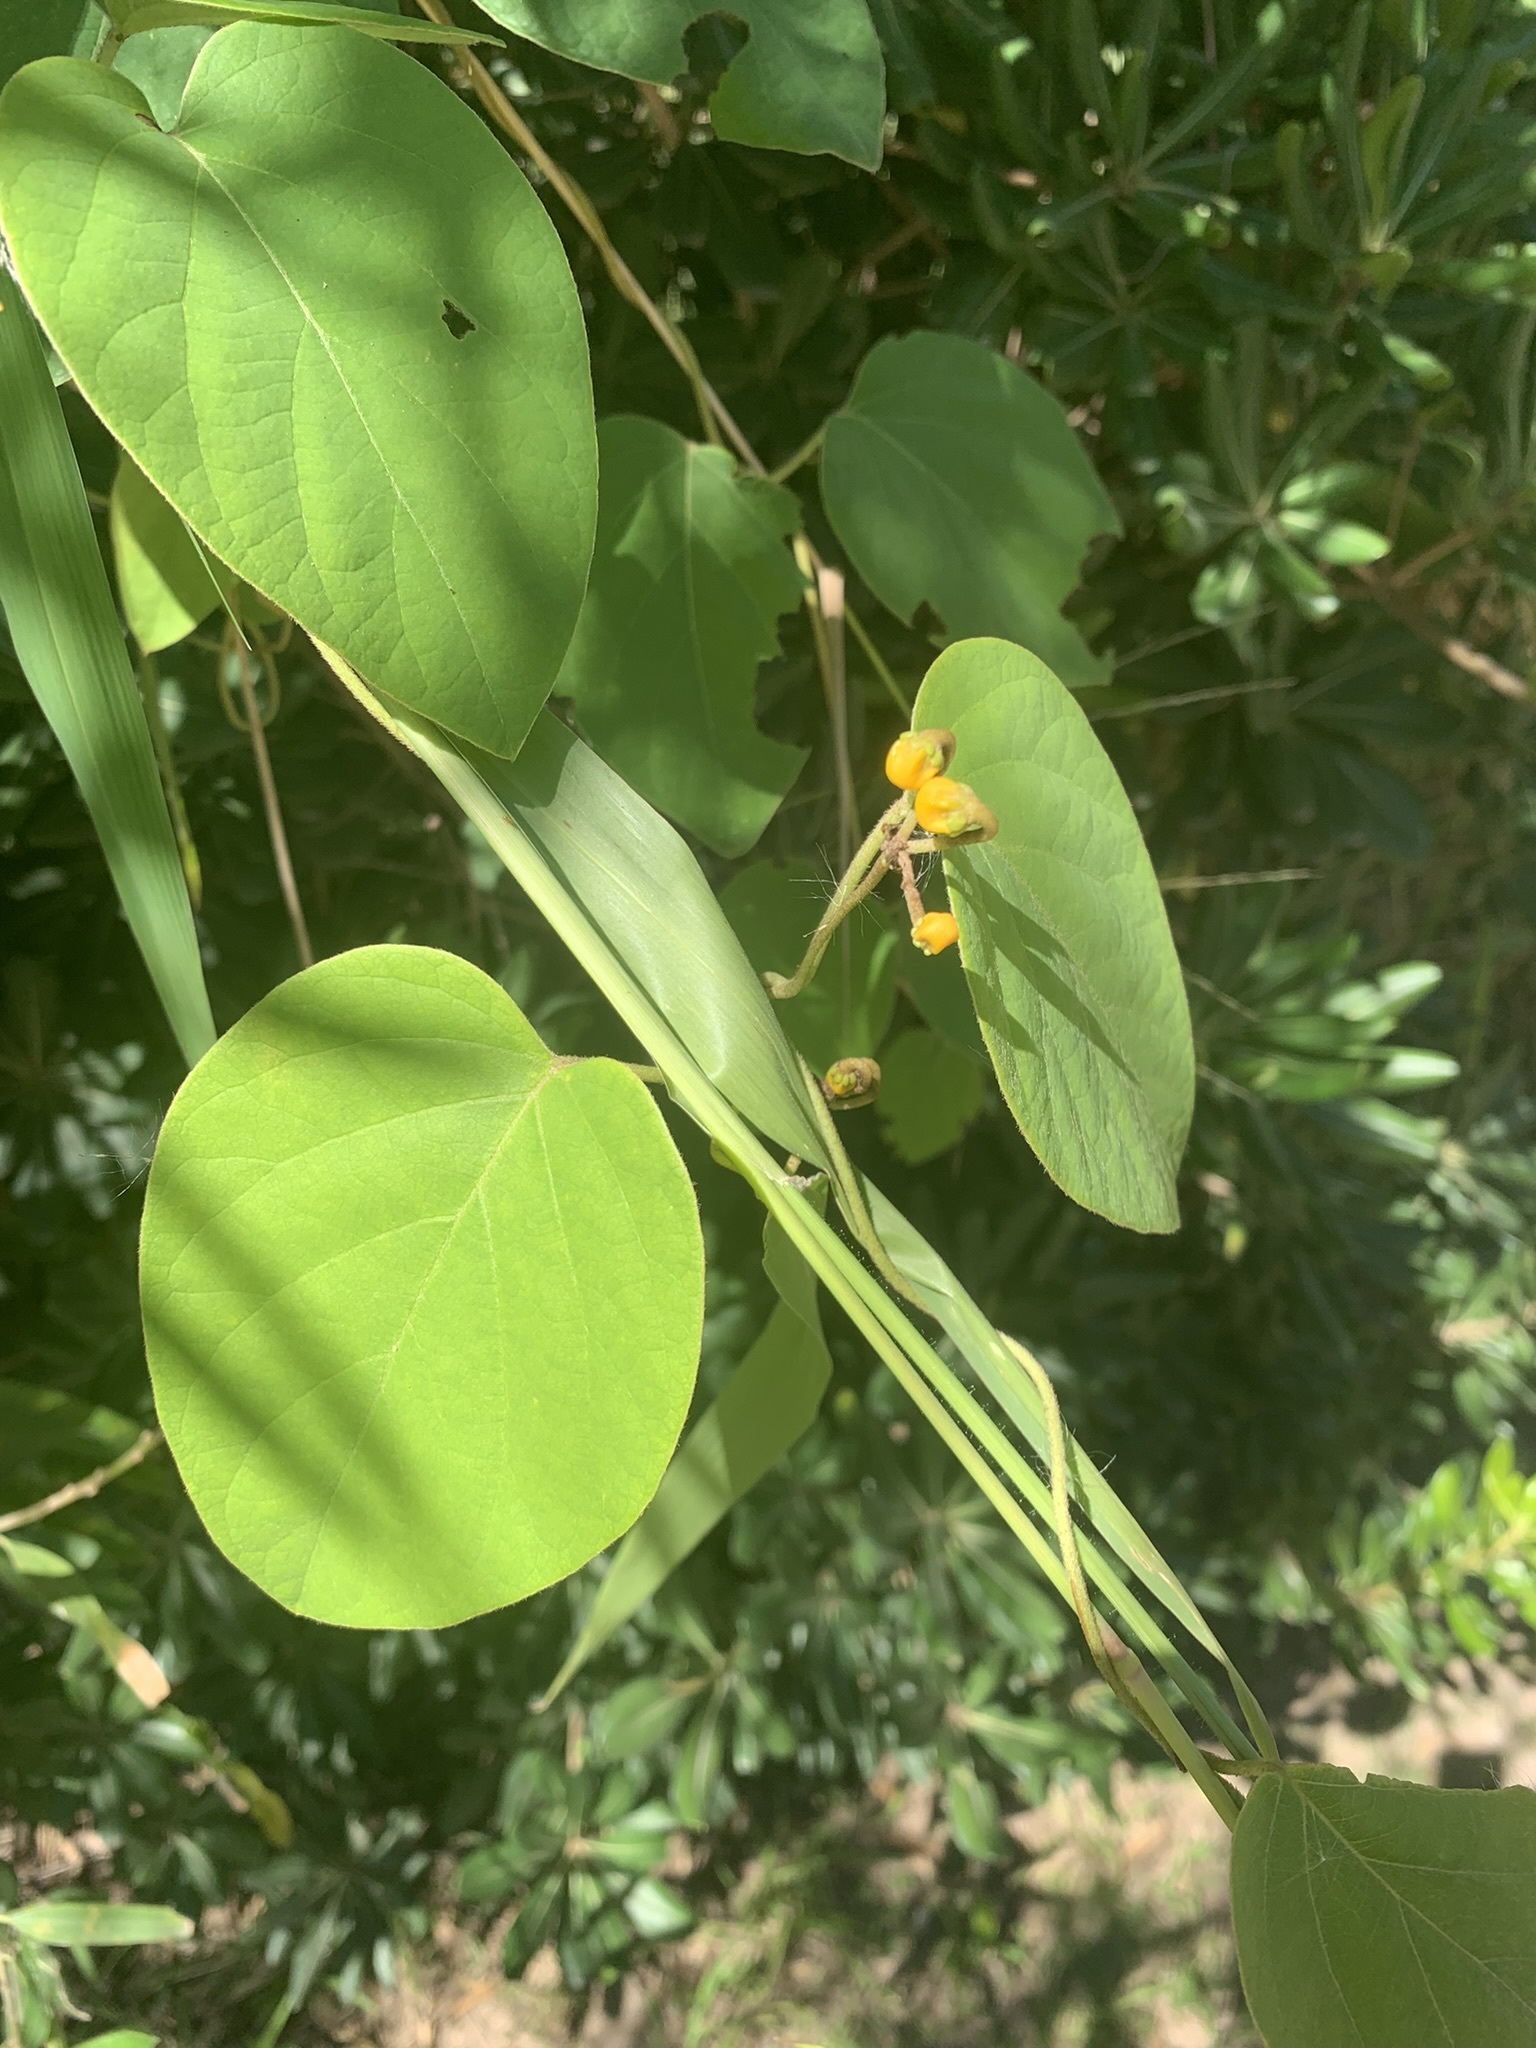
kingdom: Plantae
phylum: Tracheophyta
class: Magnoliopsida
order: Malpighiales
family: Malpighiaceae
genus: Stigmaphyllon
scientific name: Stigmaphyllon bonariense
